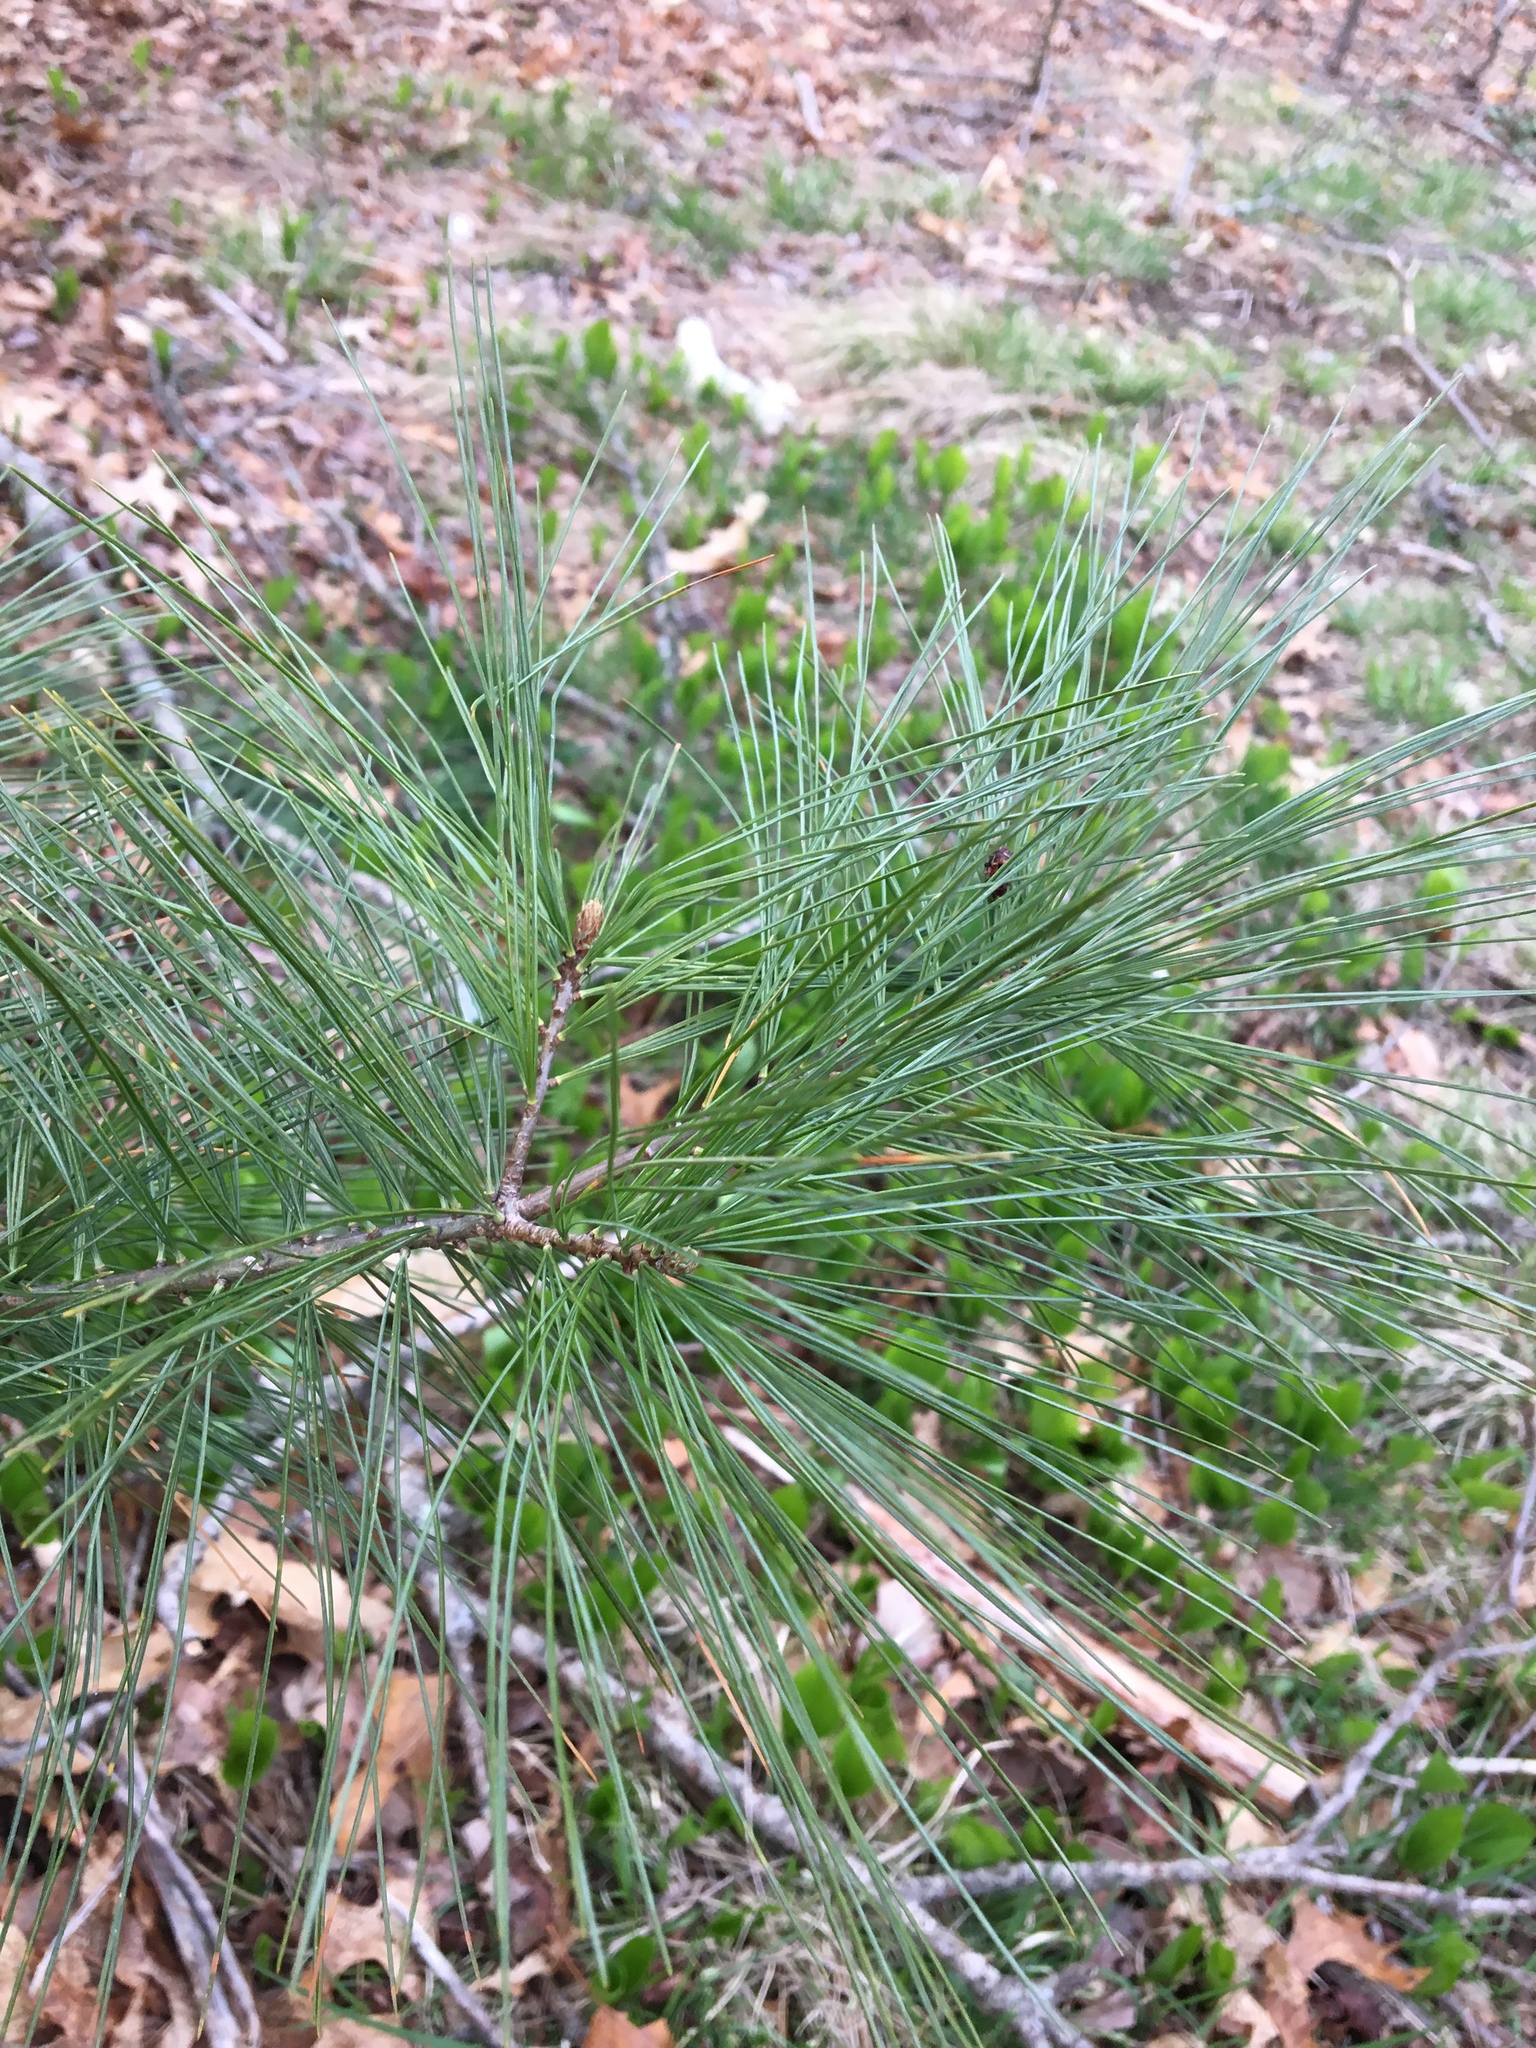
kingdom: Plantae
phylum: Tracheophyta
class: Pinopsida
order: Pinales
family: Pinaceae
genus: Pinus
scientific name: Pinus strobus
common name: Weymouth pine
